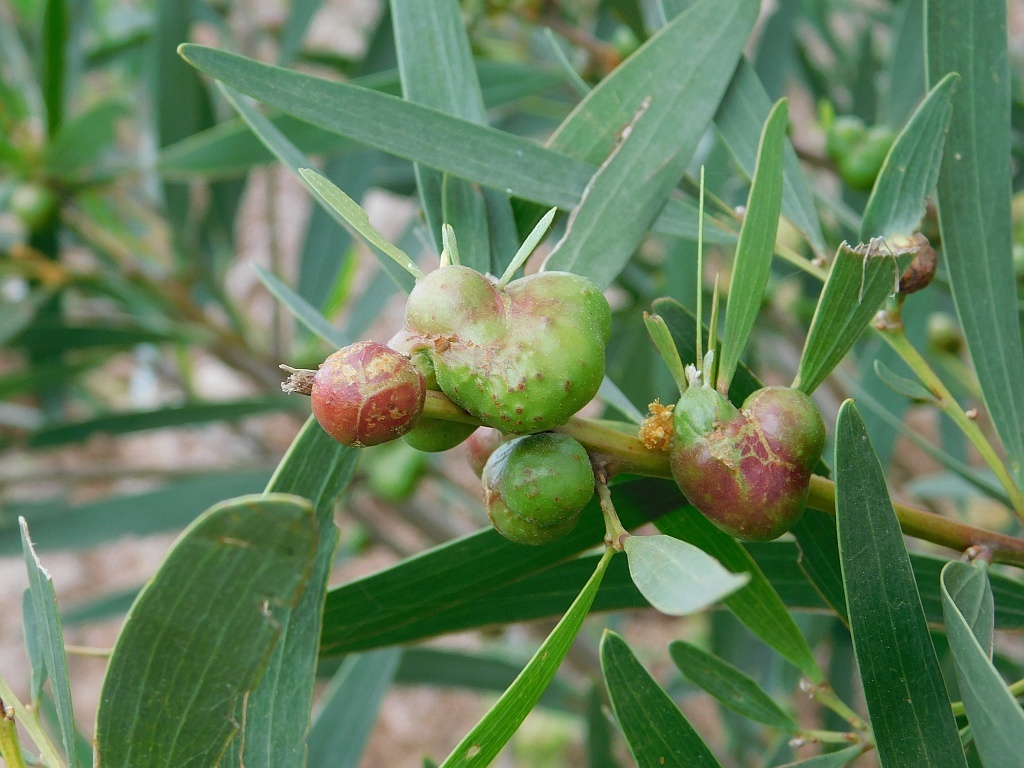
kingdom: Animalia
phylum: Arthropoda
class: Insecta
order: Hymenoptera
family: Pteromalidae
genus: Trichilogaster
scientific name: Trichilogaster acaciaelongifoliae
